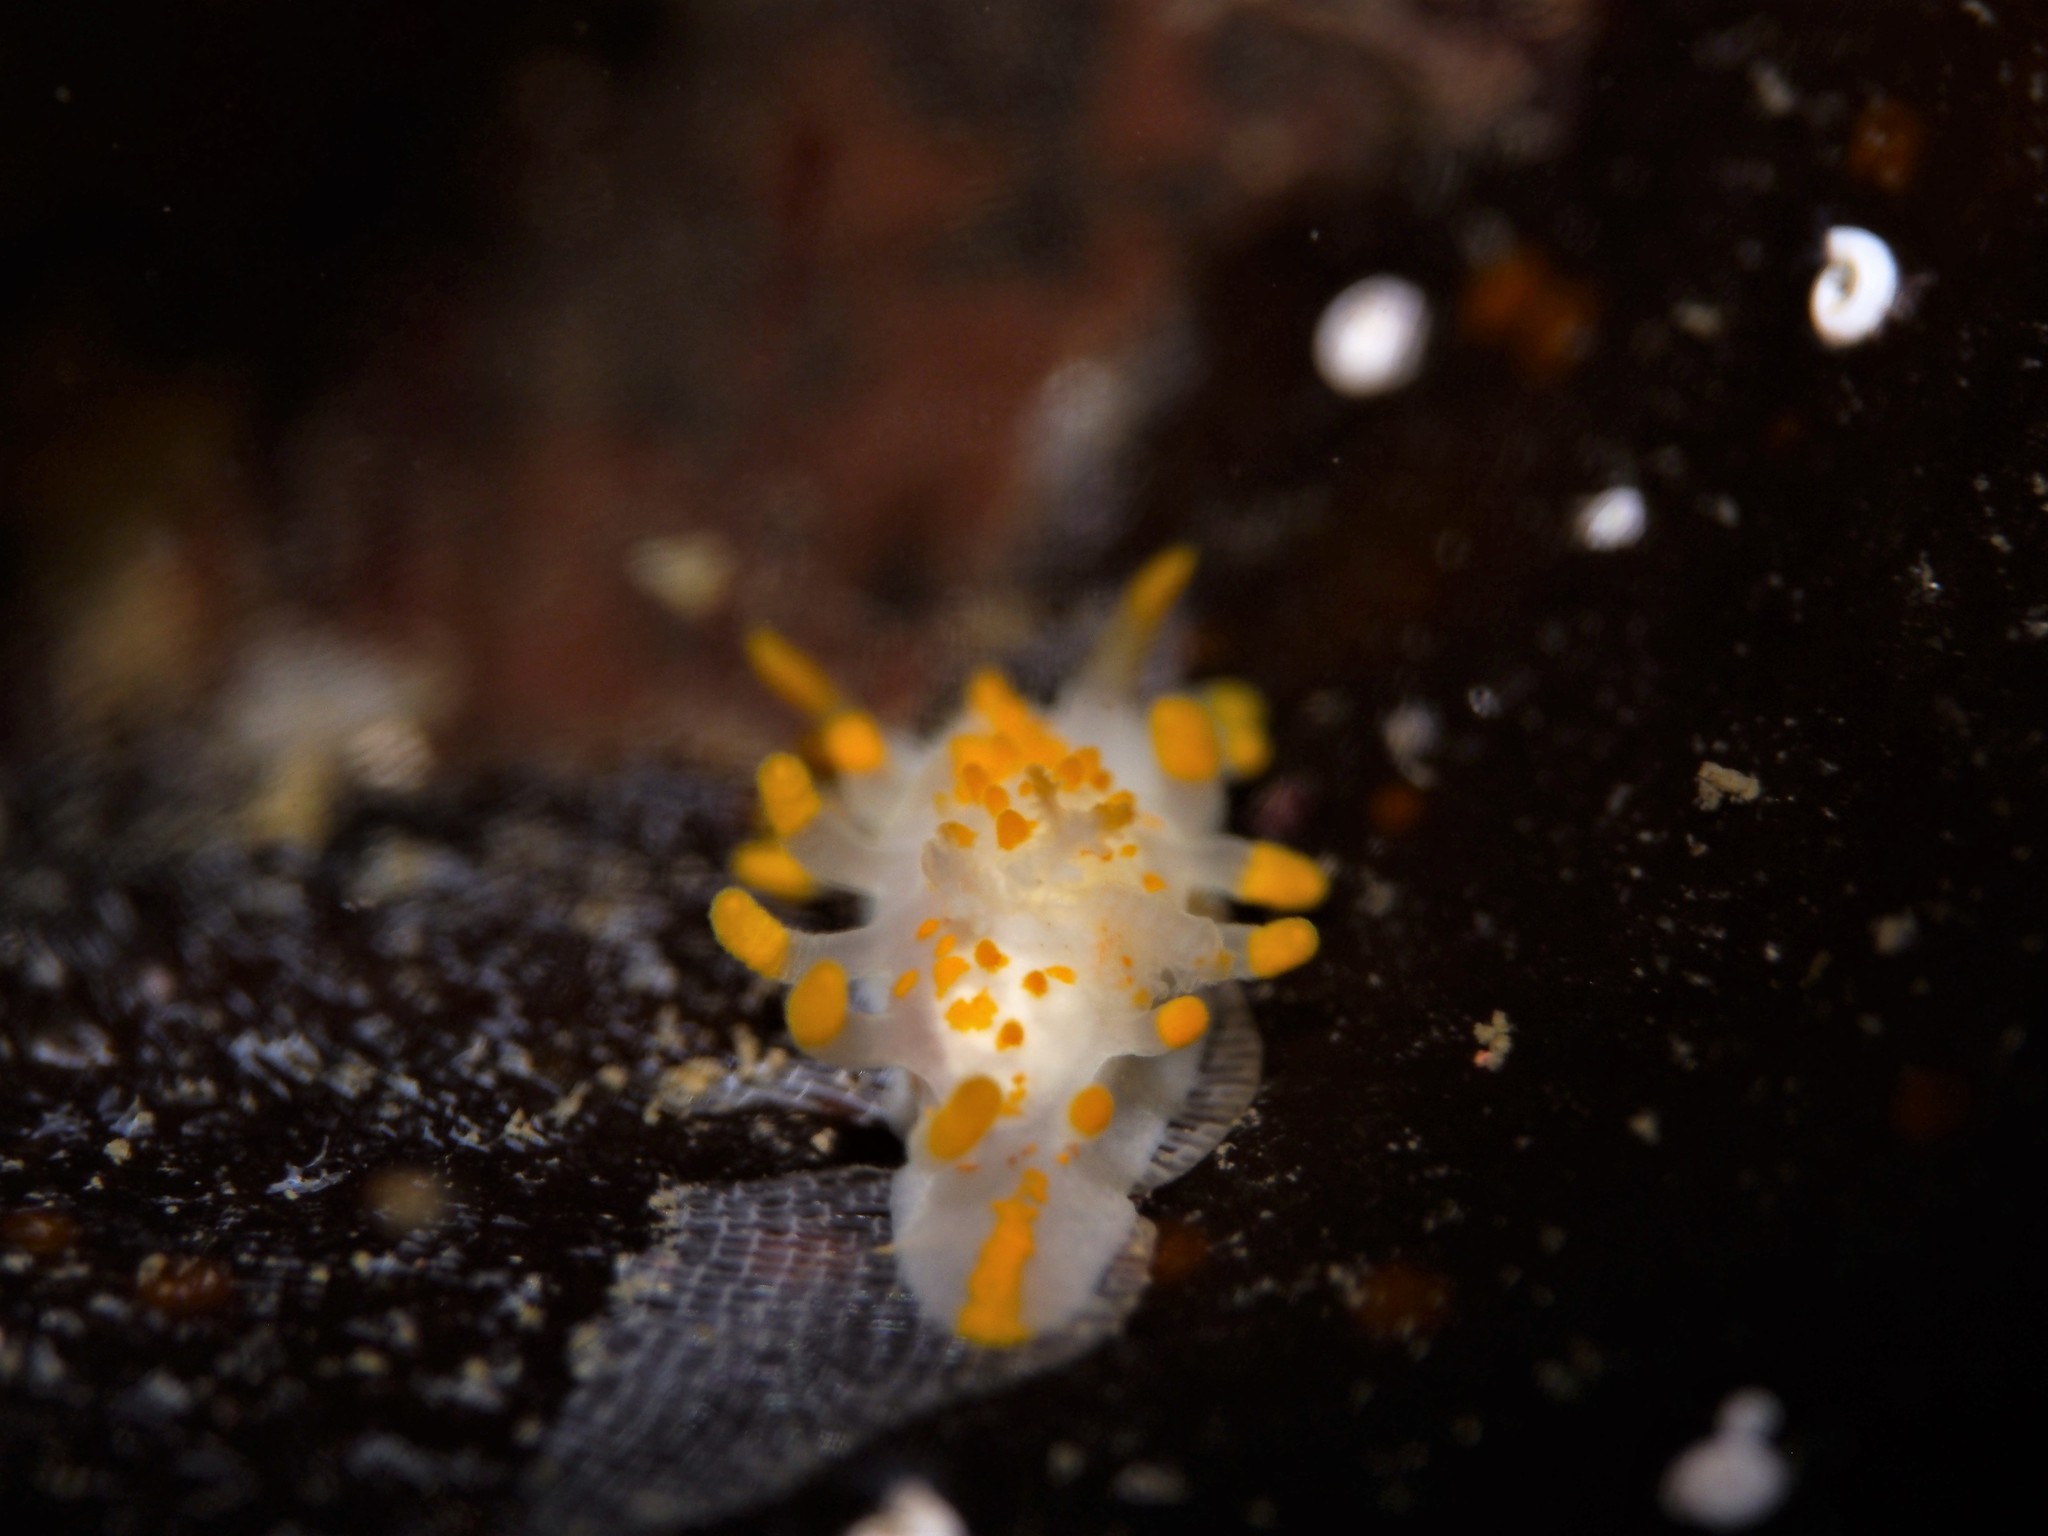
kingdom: Animalia
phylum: Mollusca
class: Gastropoda
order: Nudibranchia
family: Polyceridae
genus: Limacia
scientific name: Limacia clavigera
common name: Orange-clubbed sea slug
